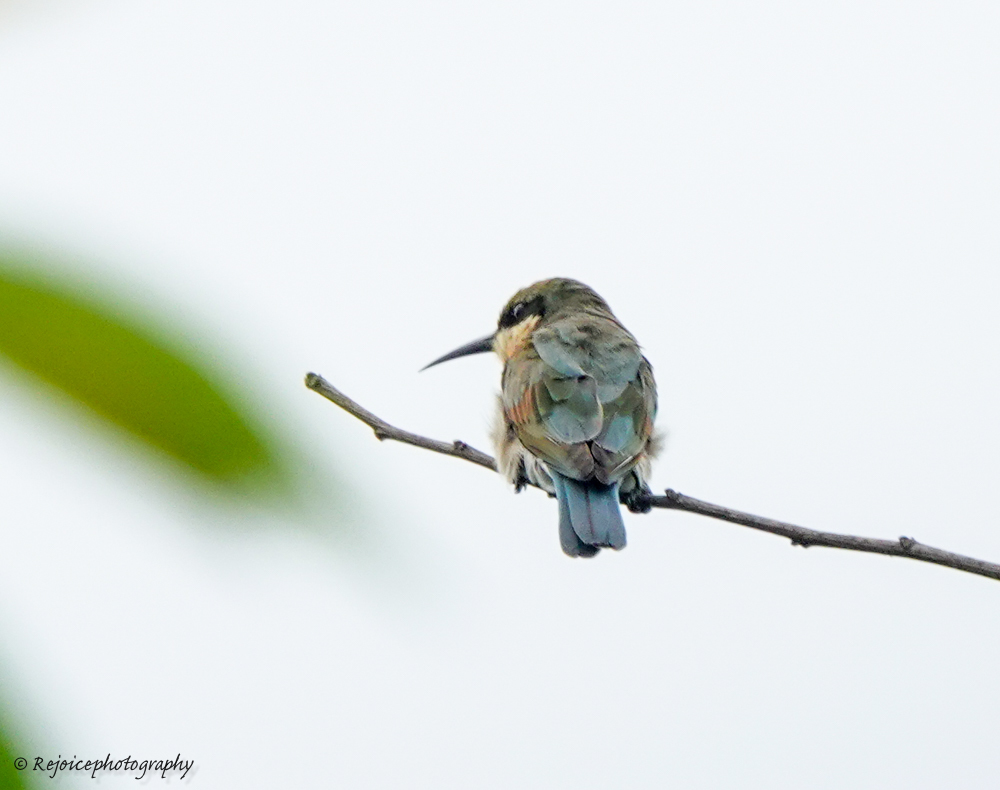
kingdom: Animalia
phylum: Chordata
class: Aves
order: Coraciiformes
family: Meropidae
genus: Merops
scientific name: Merops philippinus
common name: Blue-tailed bee-eater
